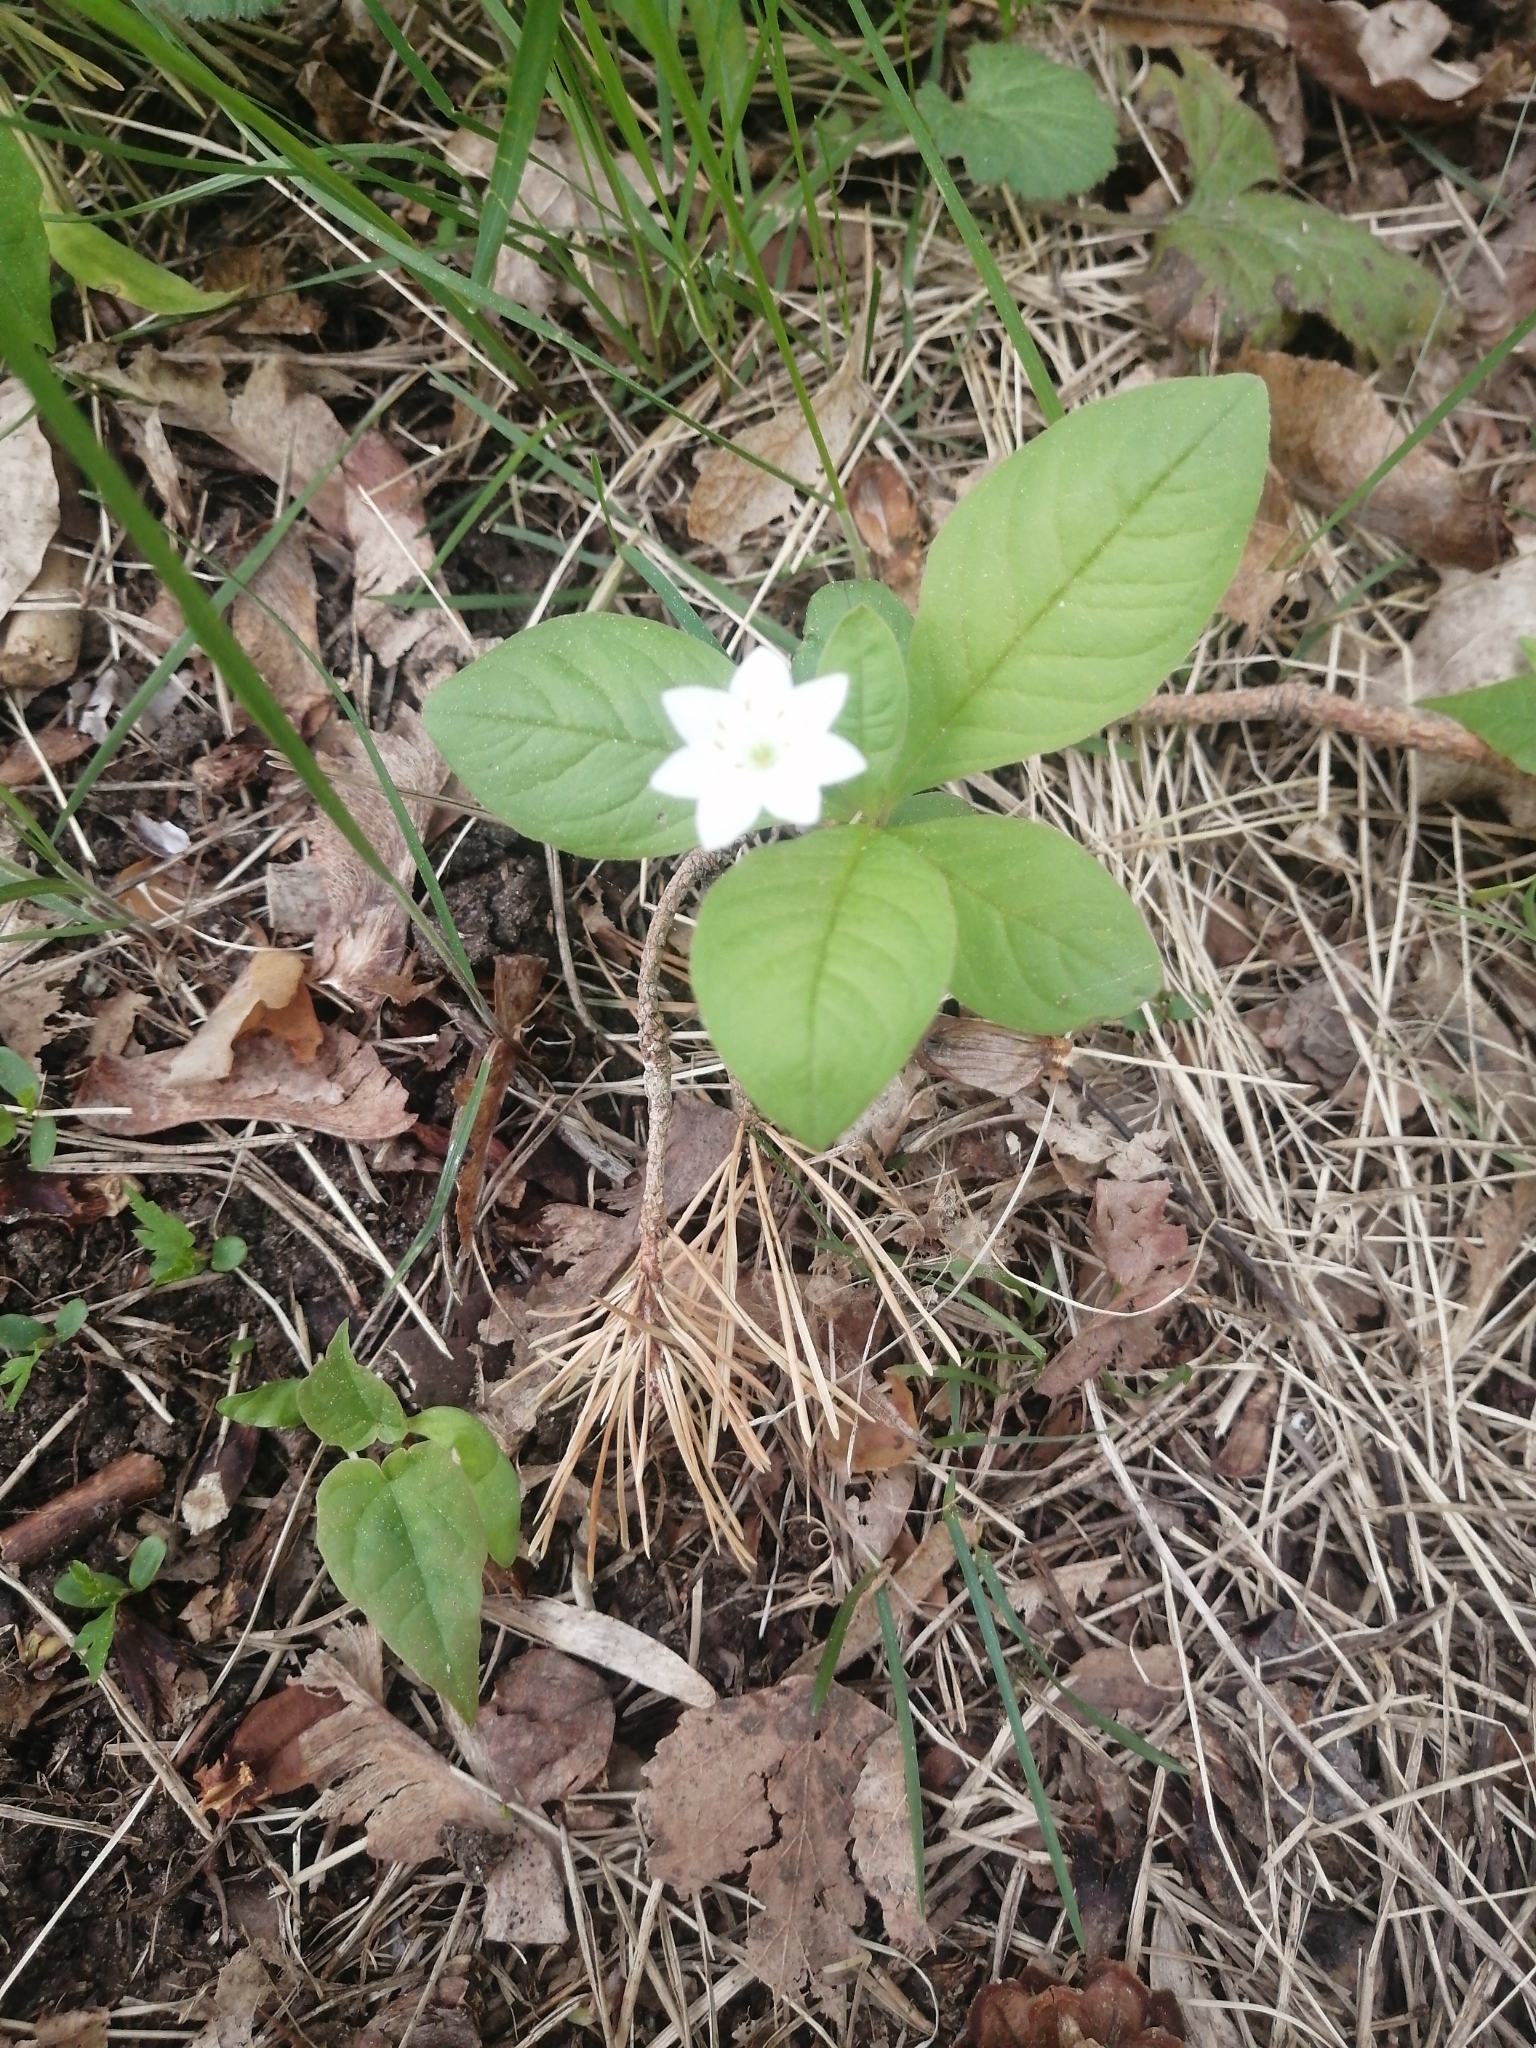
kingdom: Plantae
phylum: Tracheophyta
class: Magnoliopsida
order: Ericales
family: Primulaceae
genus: Lysimachia
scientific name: Lysimachia europaea
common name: Arctic starflower
